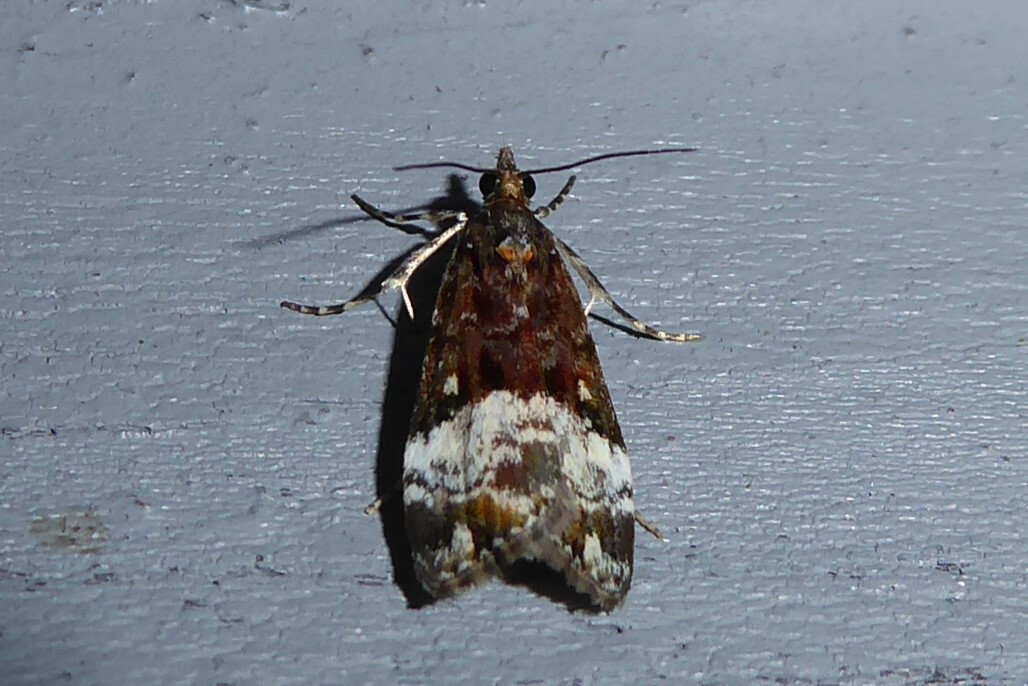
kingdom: Animalia
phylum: Arthropoda
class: Insecta
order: Lepidoptera
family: Crambidae
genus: Scoparia
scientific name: Scoparia minusculalis
